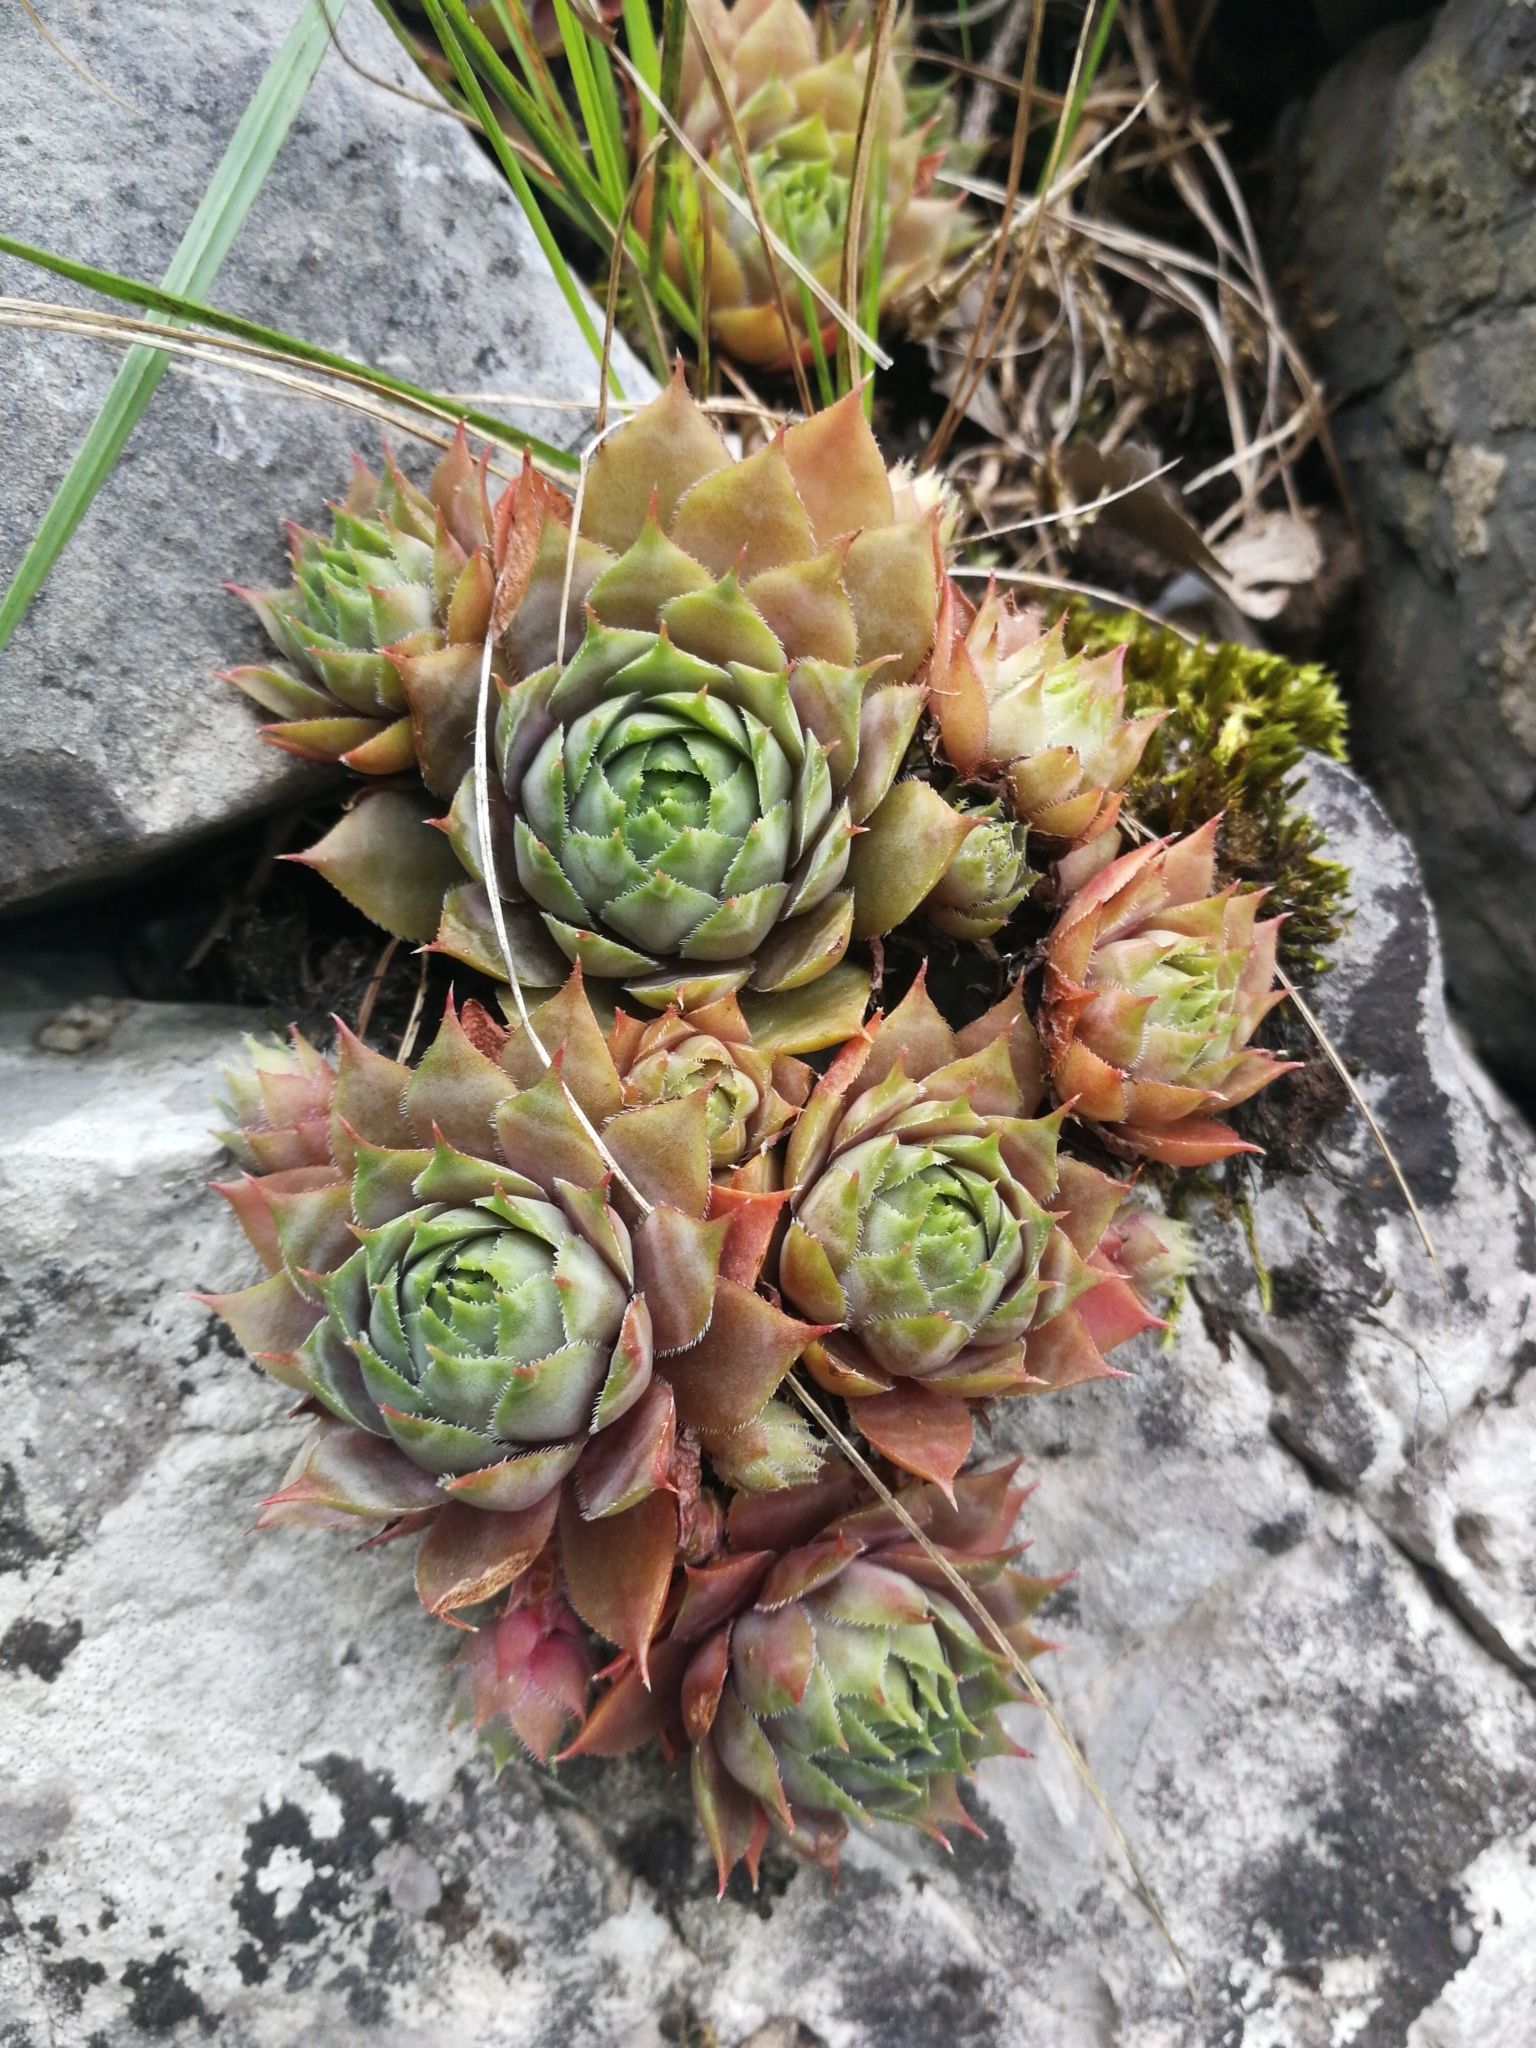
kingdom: Plantae
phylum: Tracheophyta
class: Magnoliopsida
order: Saxifragales
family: Crassulaceae
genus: Sempervivum
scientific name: Sempervivum tectorum
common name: House-leek
